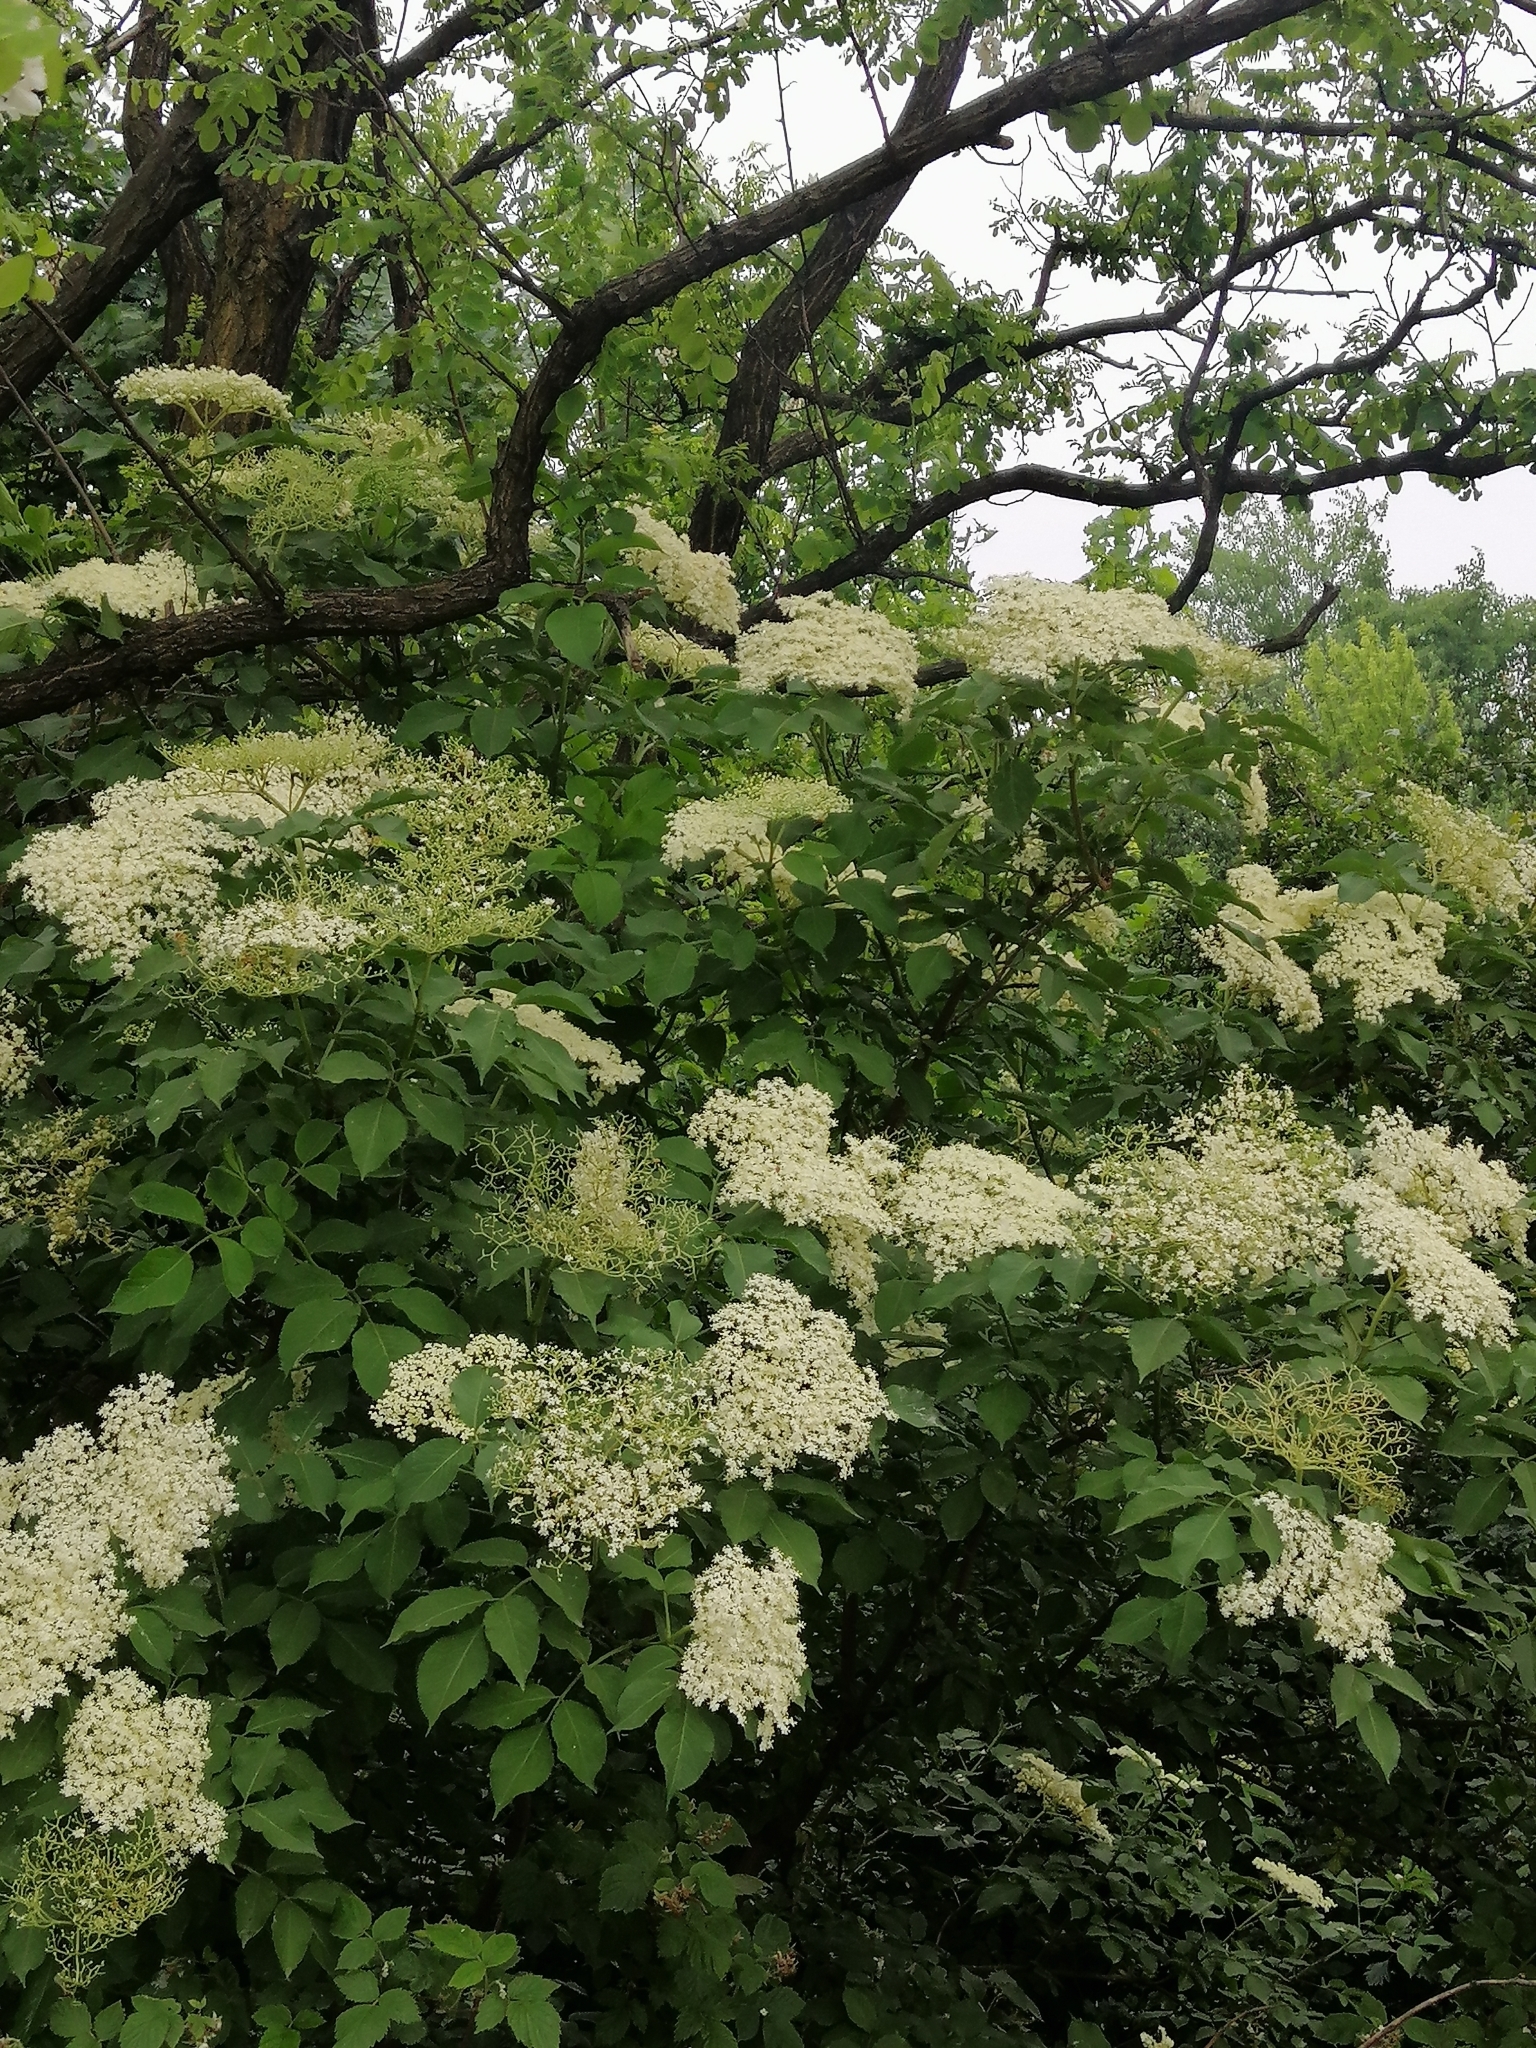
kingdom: Plantae
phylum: Tracheophyta
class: Magnoliopsida
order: Dipsacales
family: Viburnaceae
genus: Sambucus
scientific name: Sambucus nigra
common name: Elder
